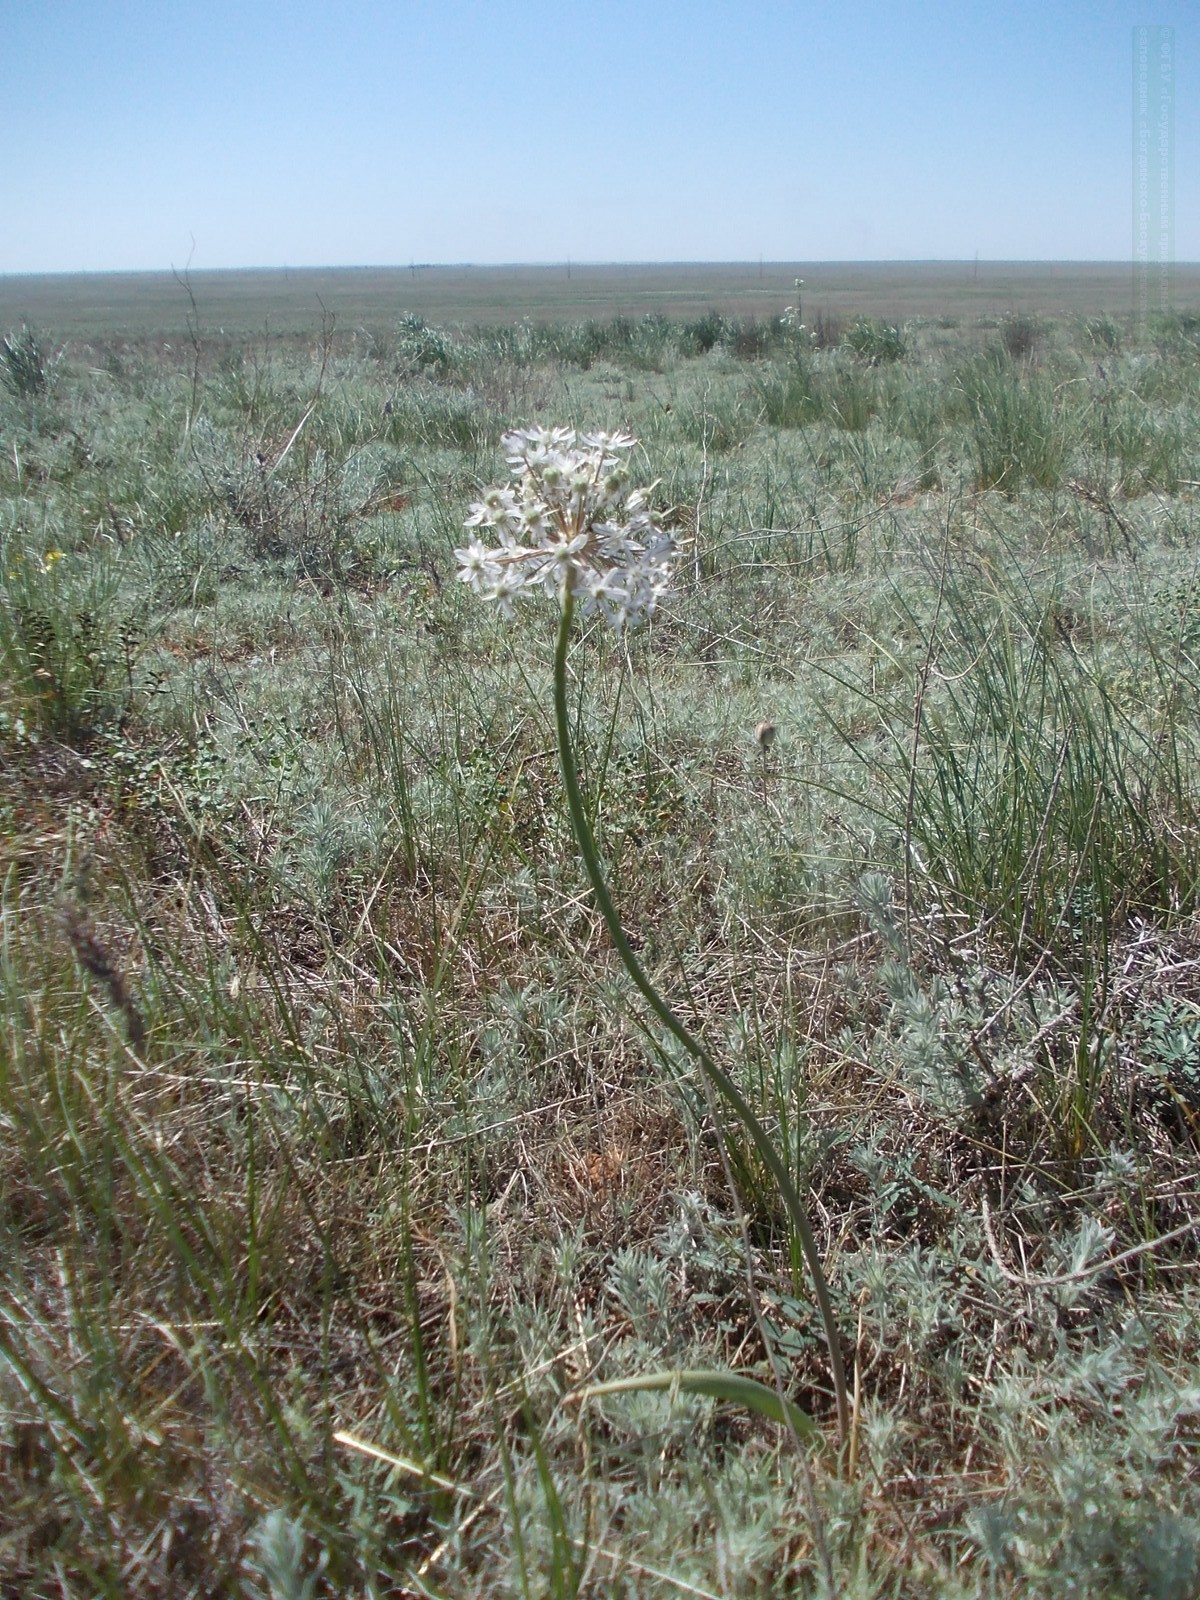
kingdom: Plantae
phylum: Tracheophyta
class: Liliopsida
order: Asparagales
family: Amaryllidaceae
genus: Allium
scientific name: Allium tulipifolium
